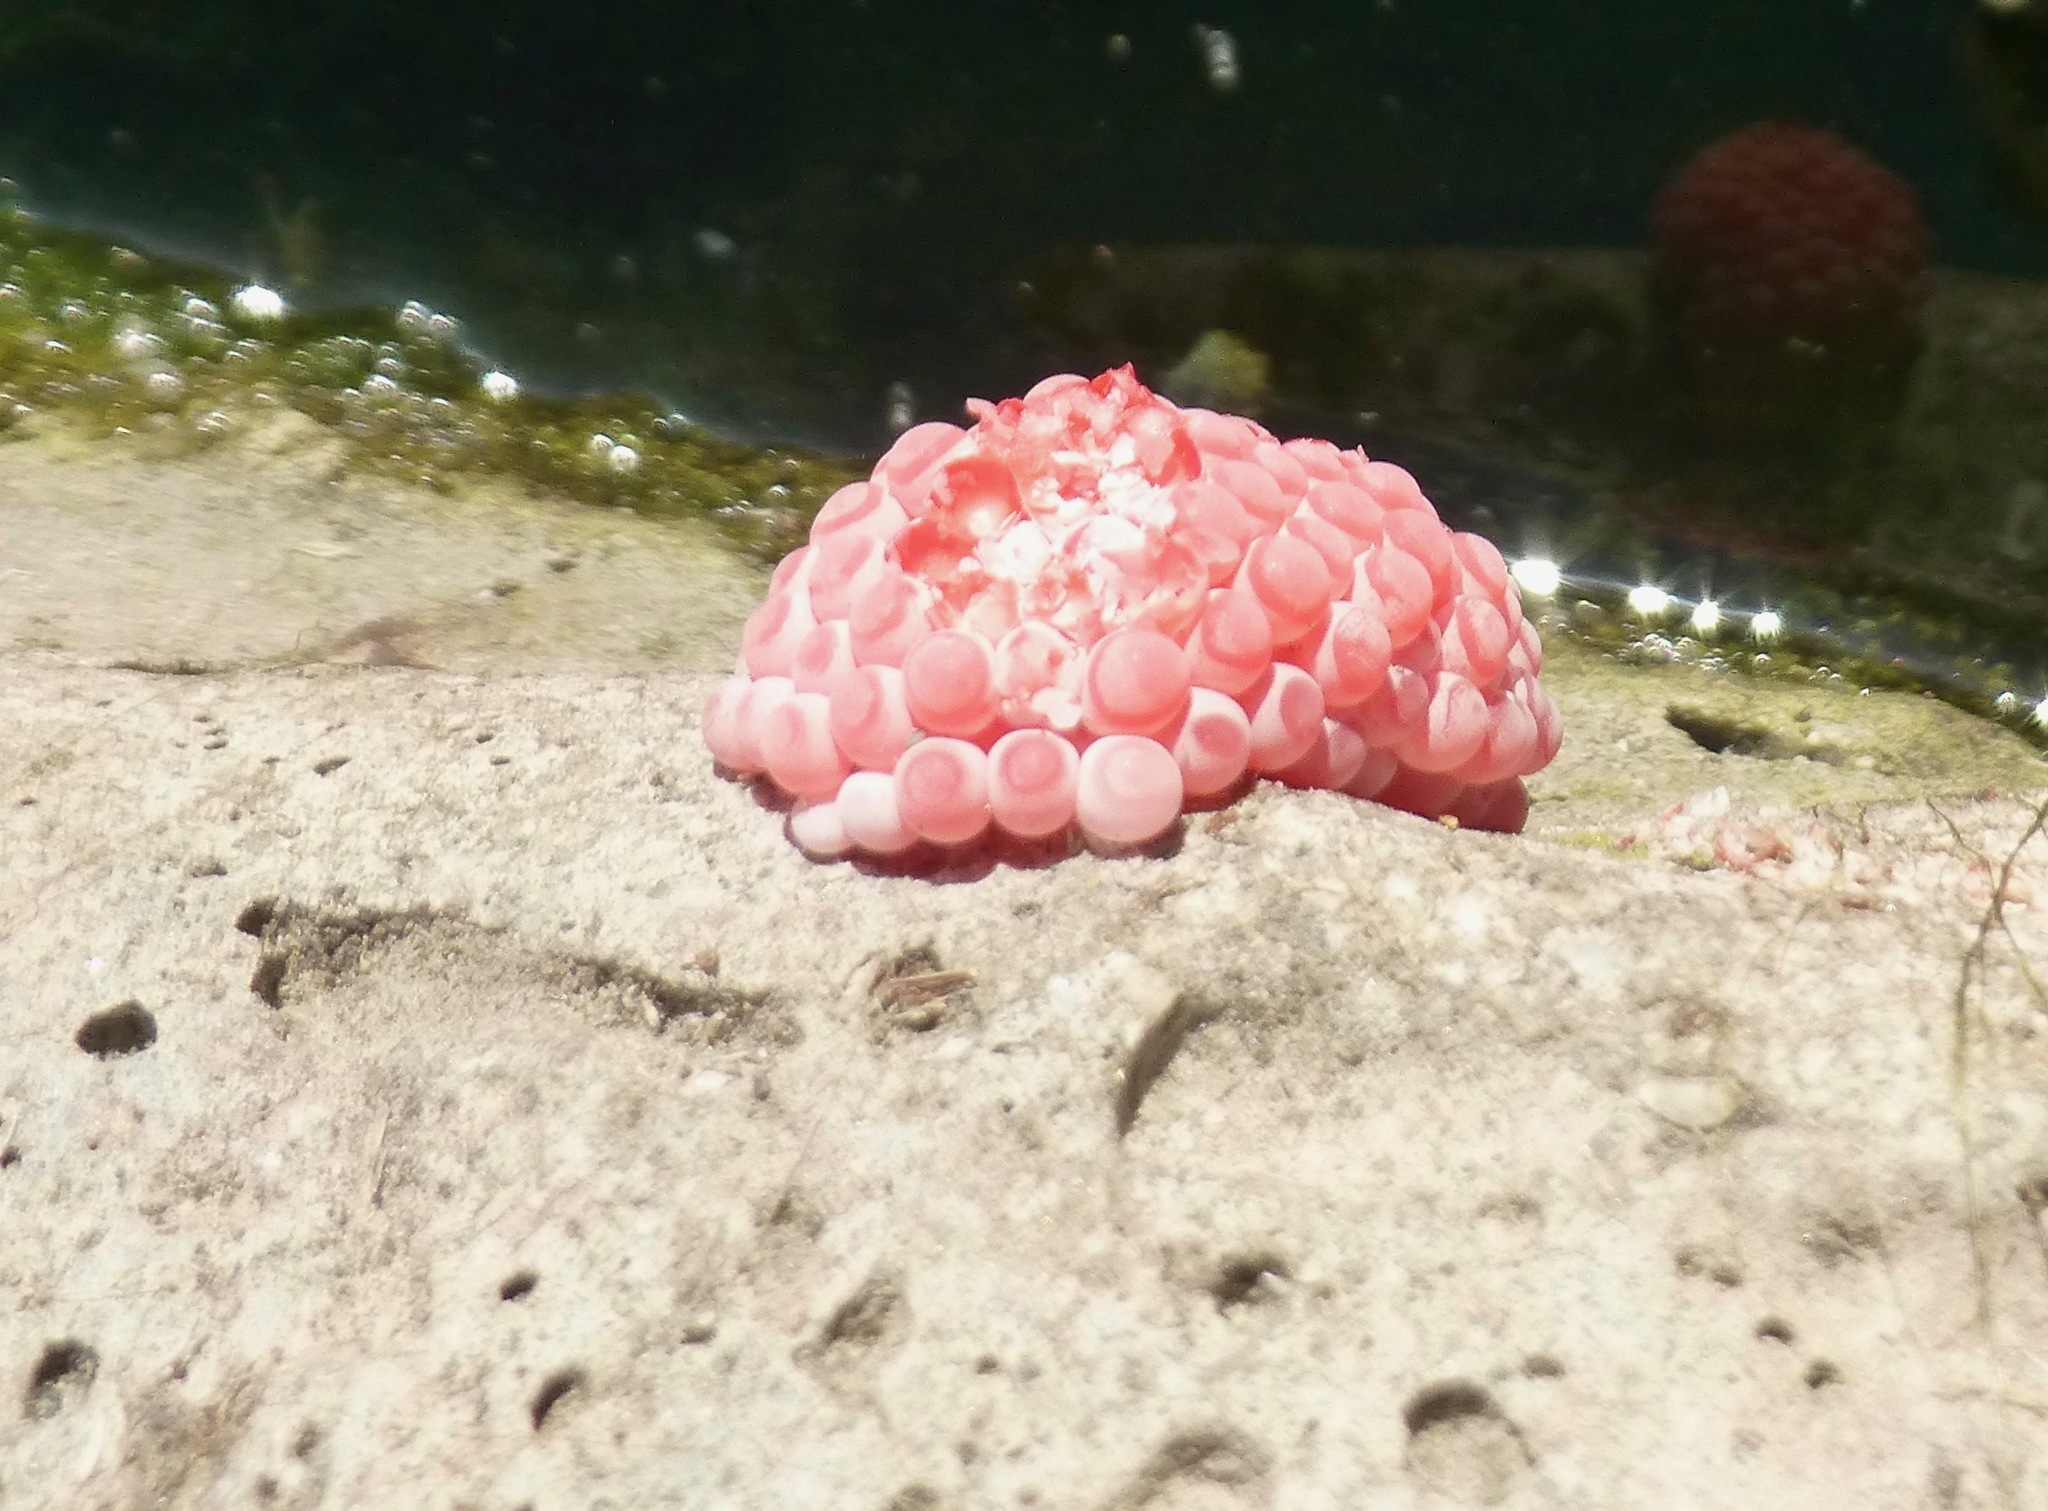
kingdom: Animalia
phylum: Mollusca
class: Gastropoda
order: Architaenioglossa
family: Ampullariidae
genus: Pomacea
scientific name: Pomacea canaliculata
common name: Channeled applesnail
